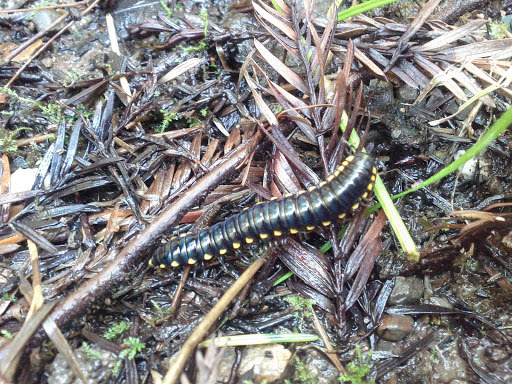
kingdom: Animalia
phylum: Arthropoda
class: Diplopoda
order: Polydesmida
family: Xystodesmidae
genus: Harpaphe
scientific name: Harpaphe haydeniana
